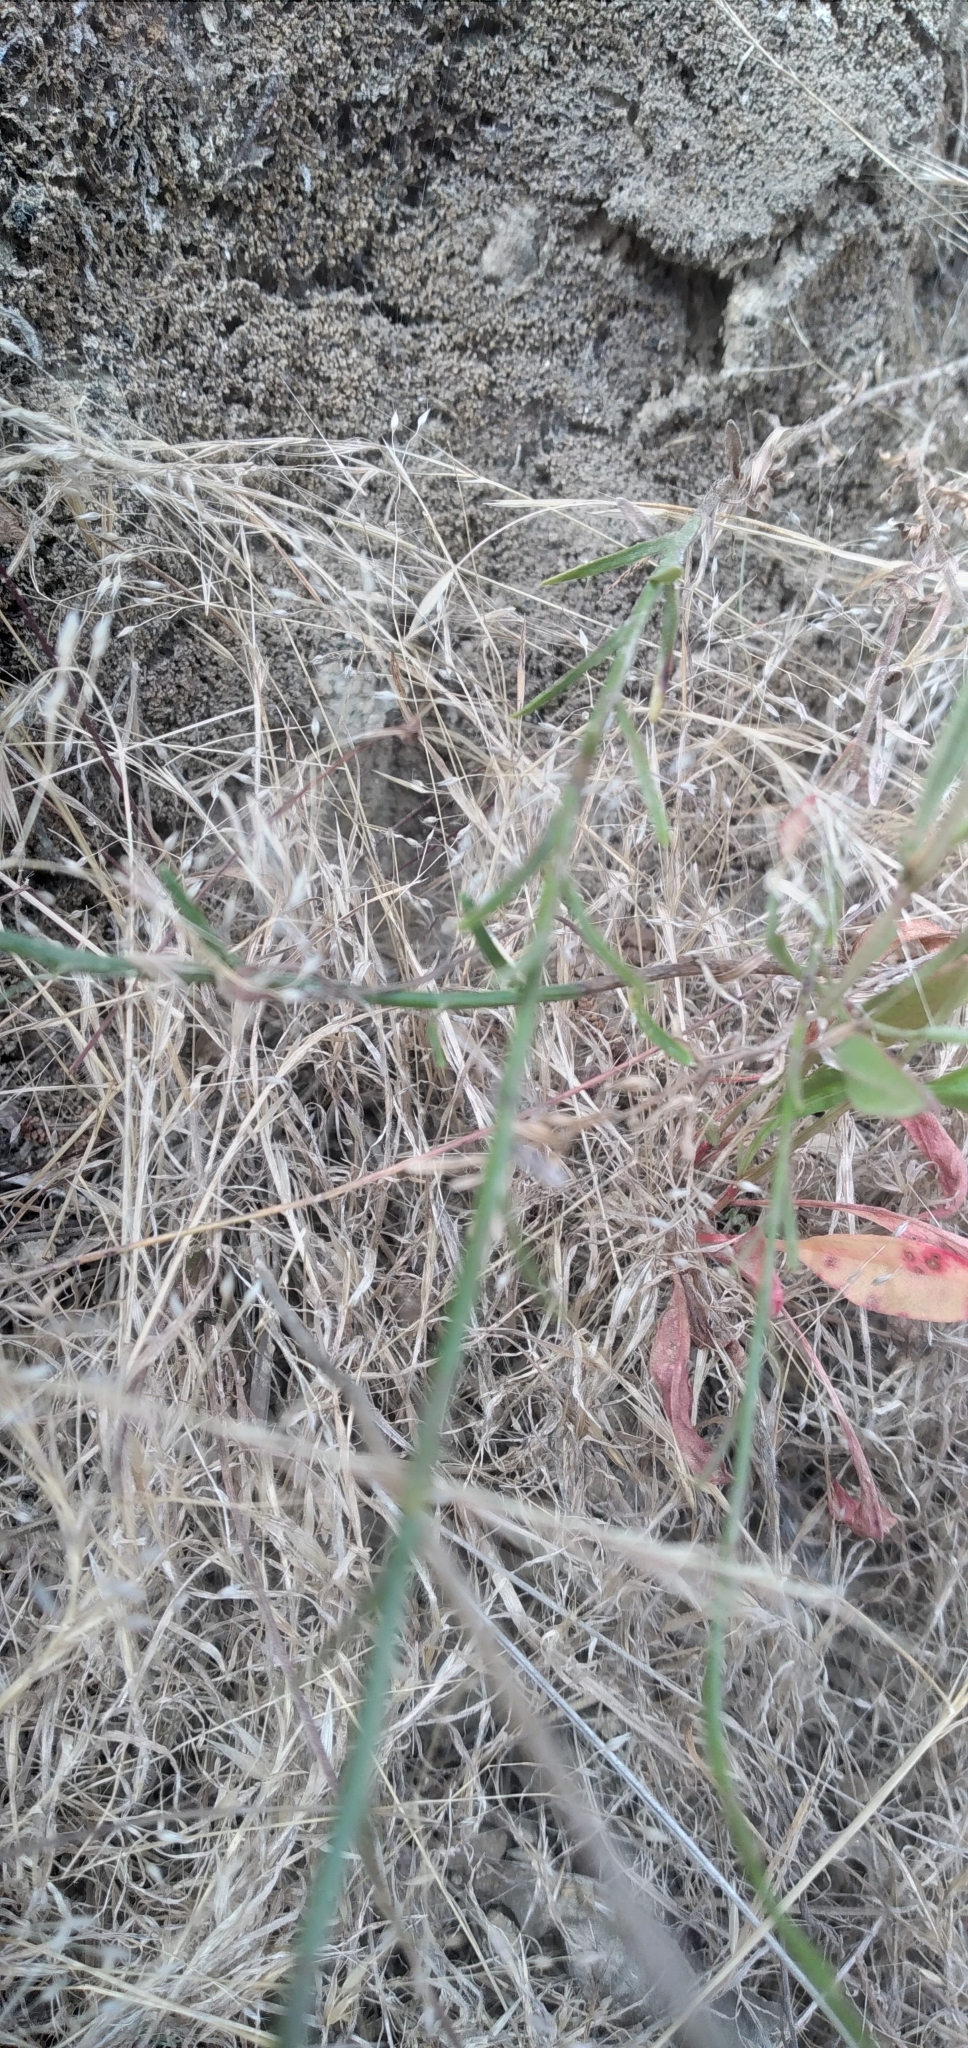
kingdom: Plantae
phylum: Tracheophyta
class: Magnoliopsida
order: Asterales
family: Campanulaceae
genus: Wahlenbergia
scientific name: Wahlenbergia linarioides
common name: Tuffybells
